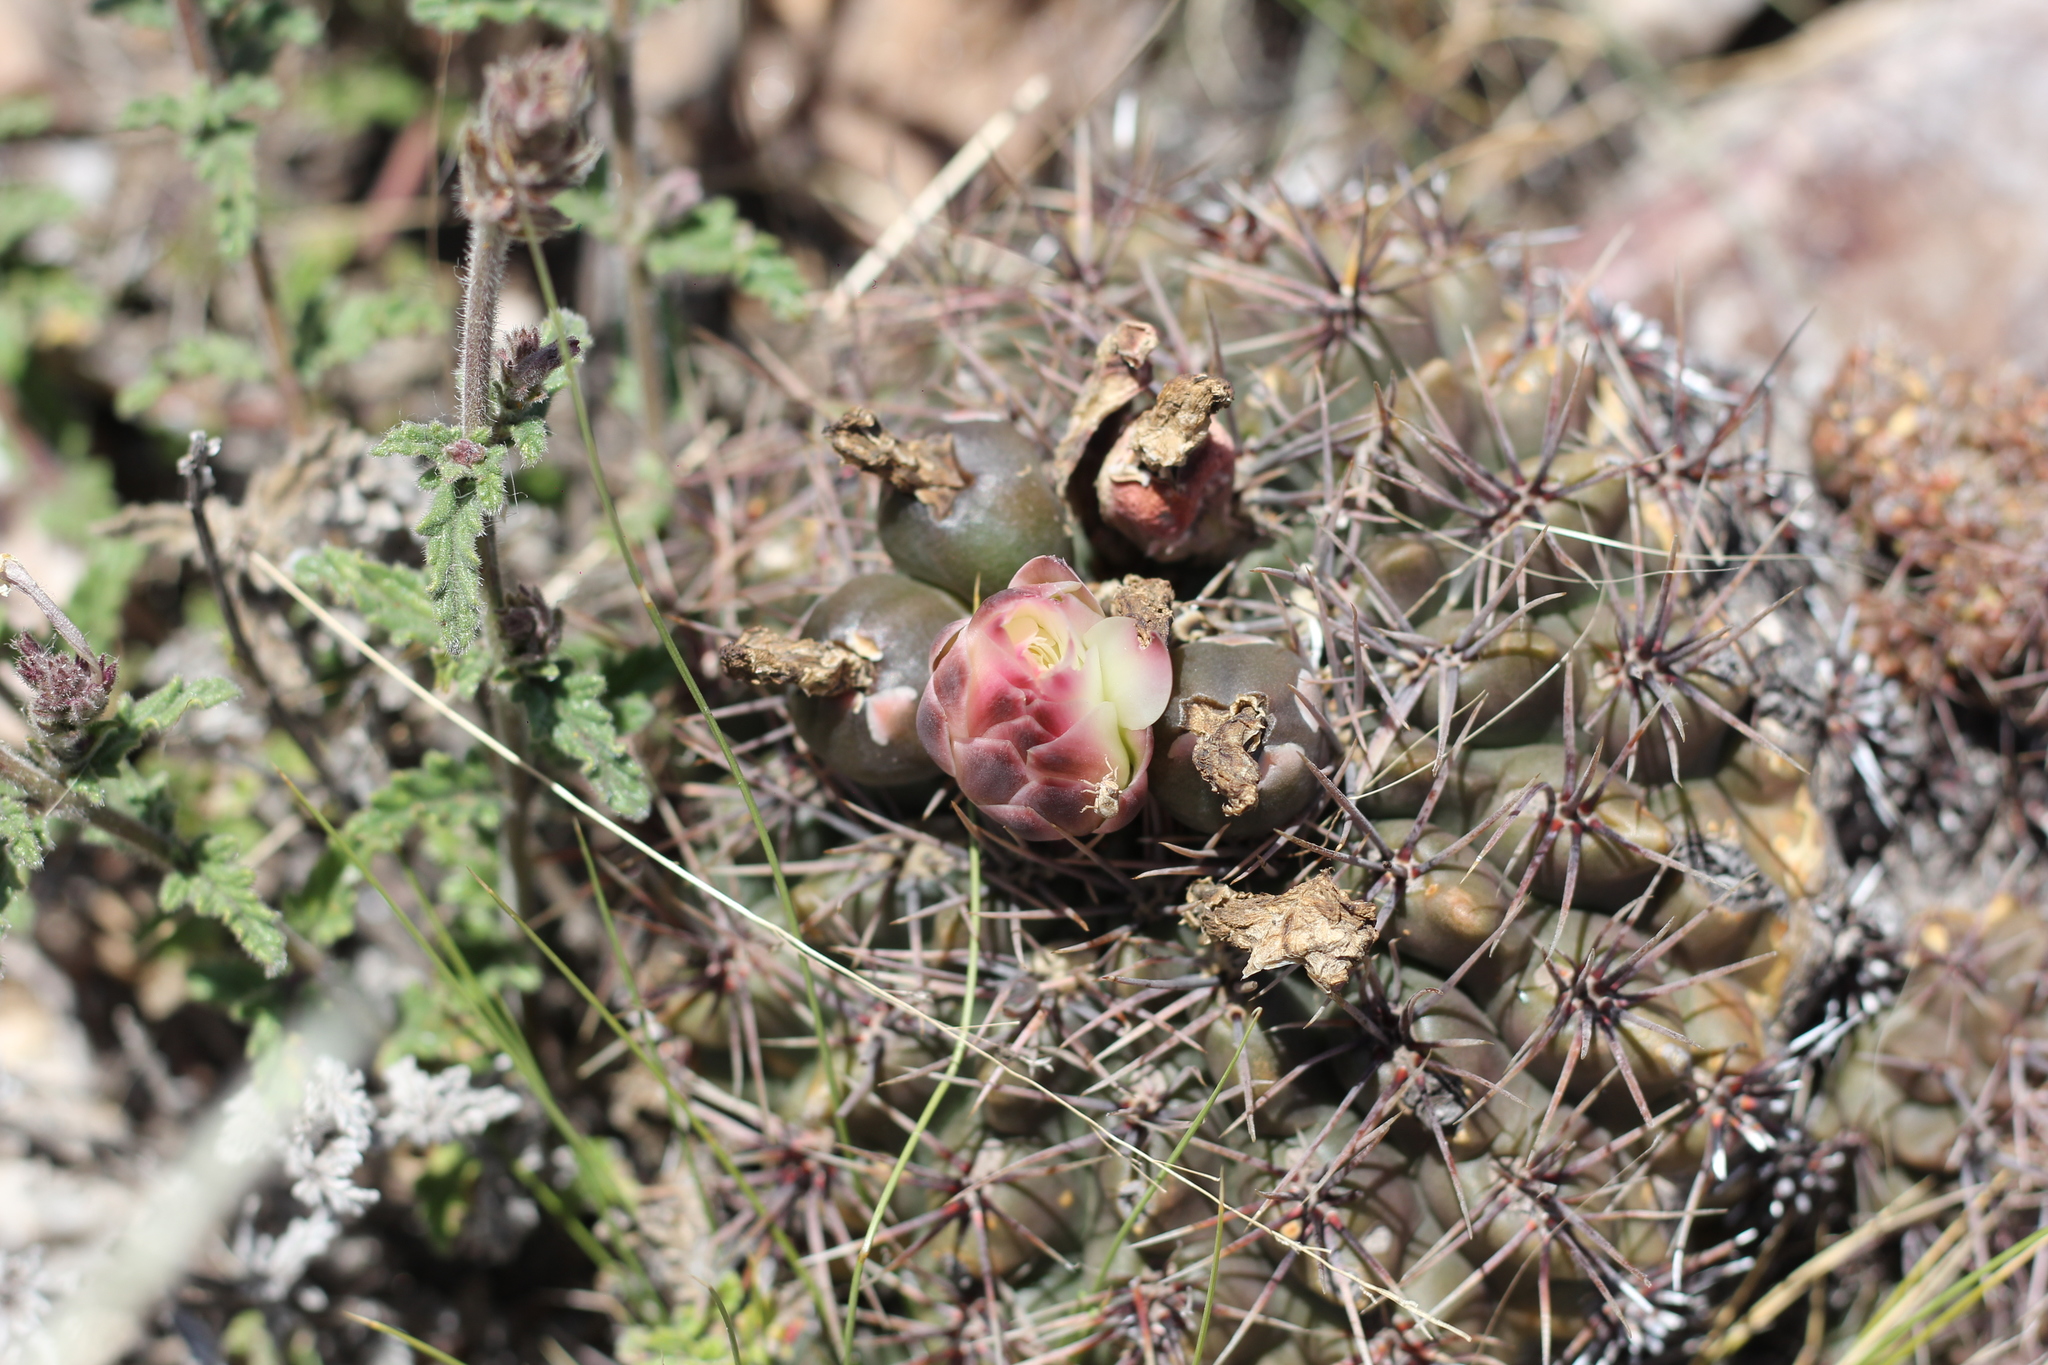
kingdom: Plantae
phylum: Tracheophyta
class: Magnoliopsida
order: Caryophyllales
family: Cactaceae
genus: Gymnocalycium
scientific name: Gymnocalycium reductum
